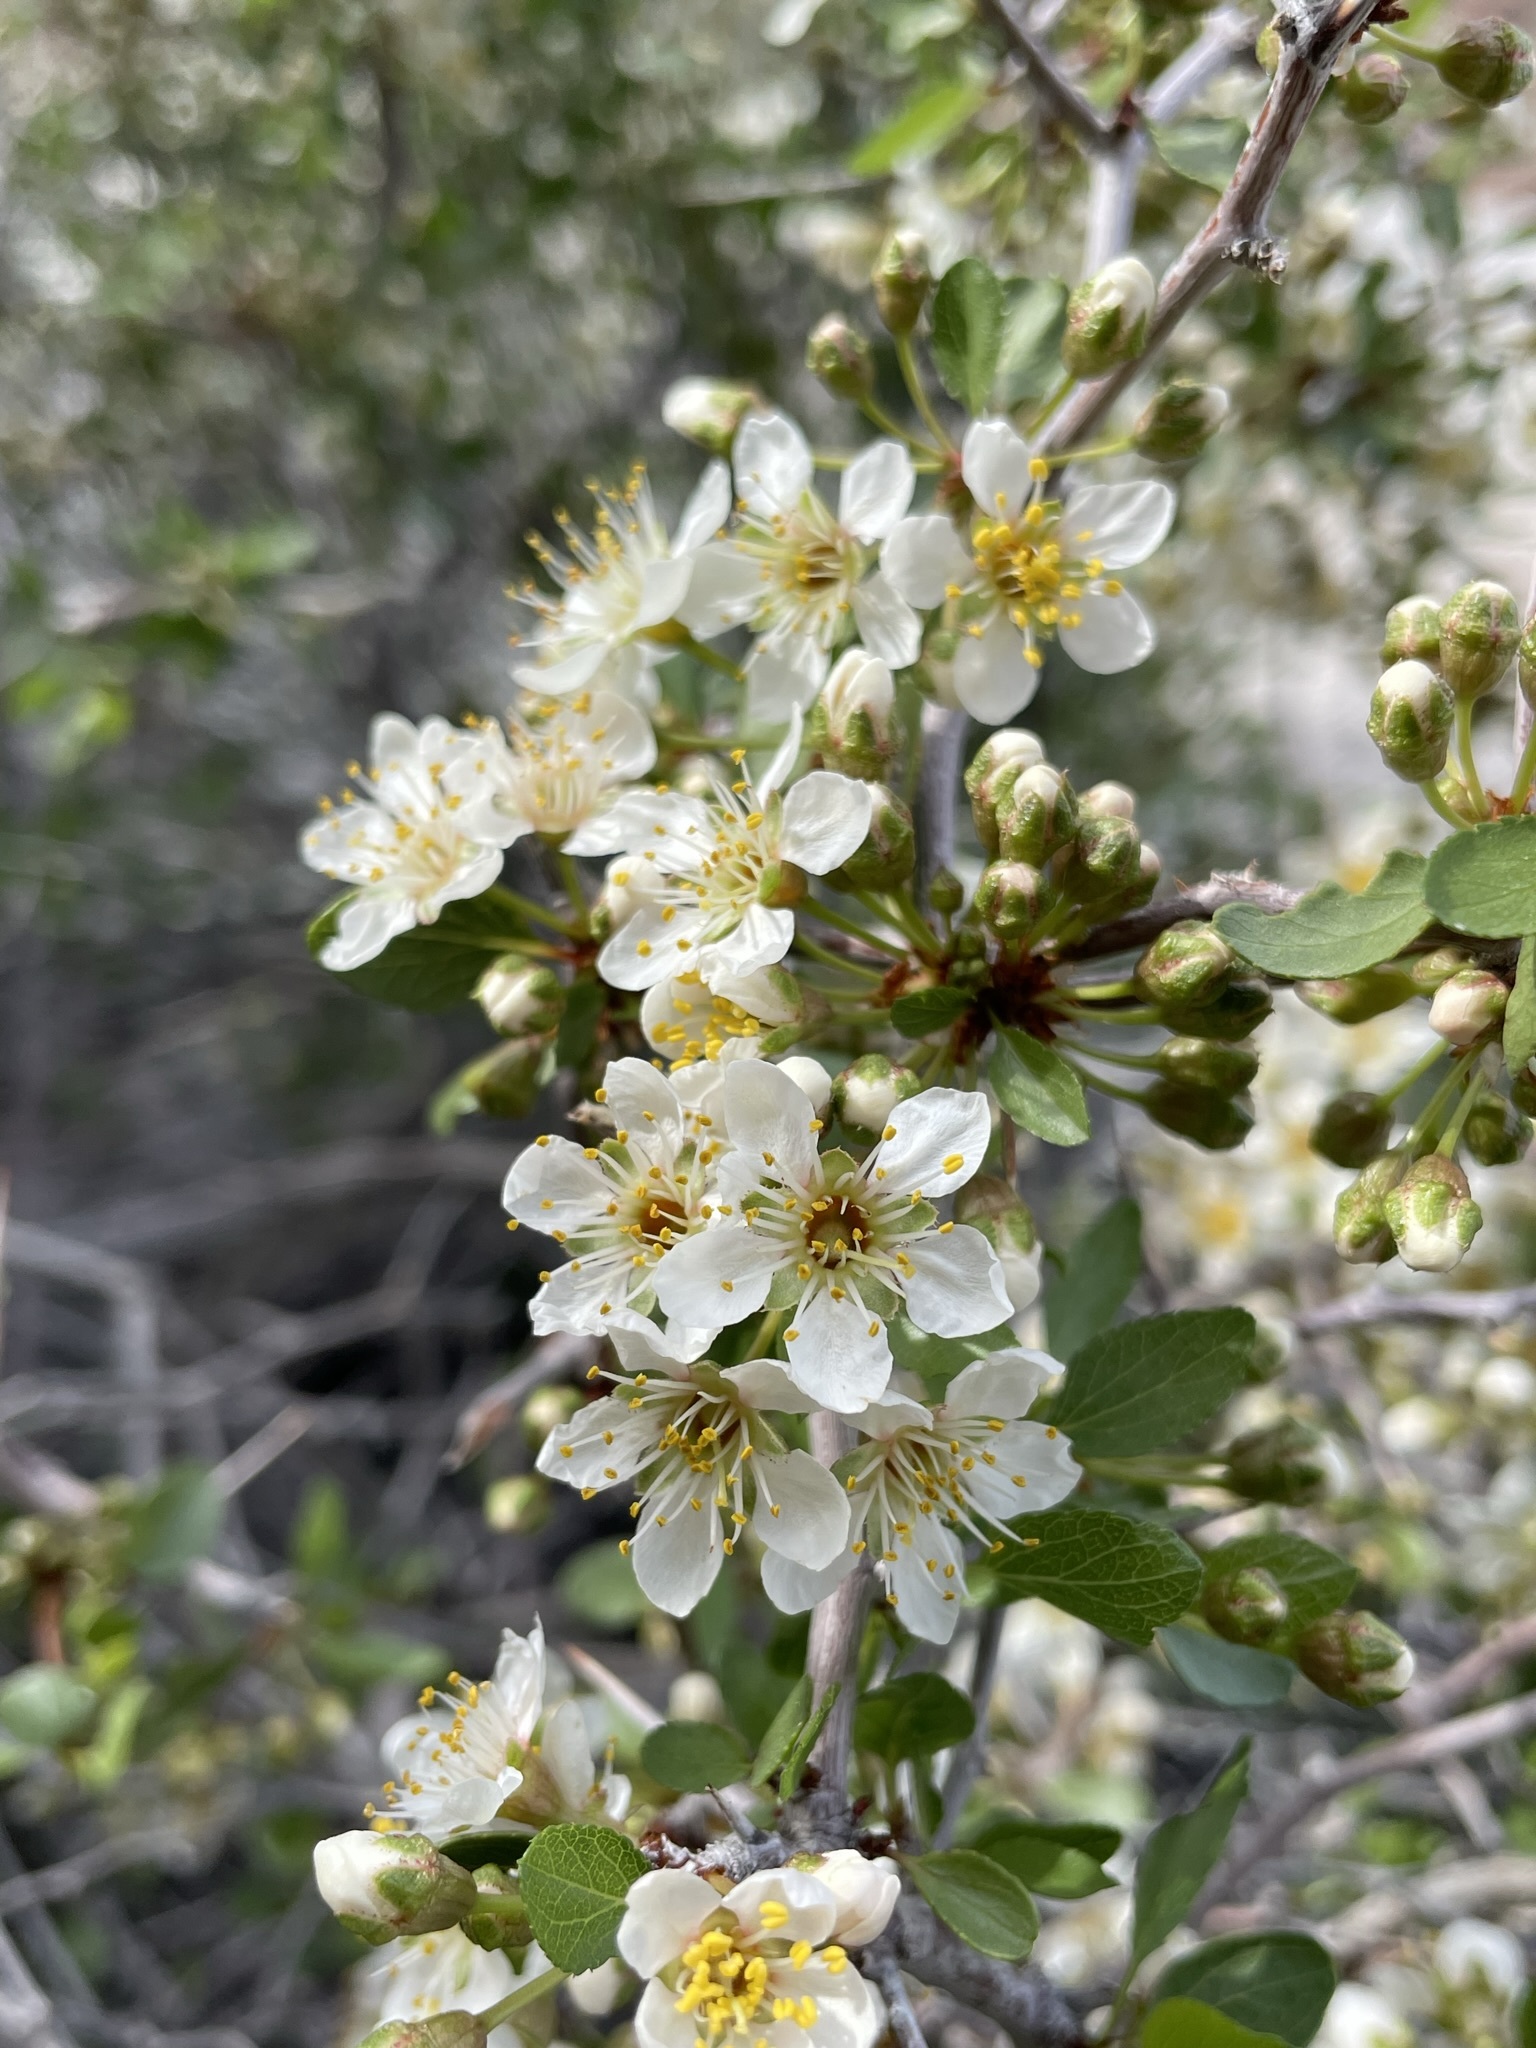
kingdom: Plantae
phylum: Tracheophyta
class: Magnoliopsida
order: Rosales
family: Rosaceae
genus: Prunus
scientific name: Prunus fremontii
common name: Desert apricot
